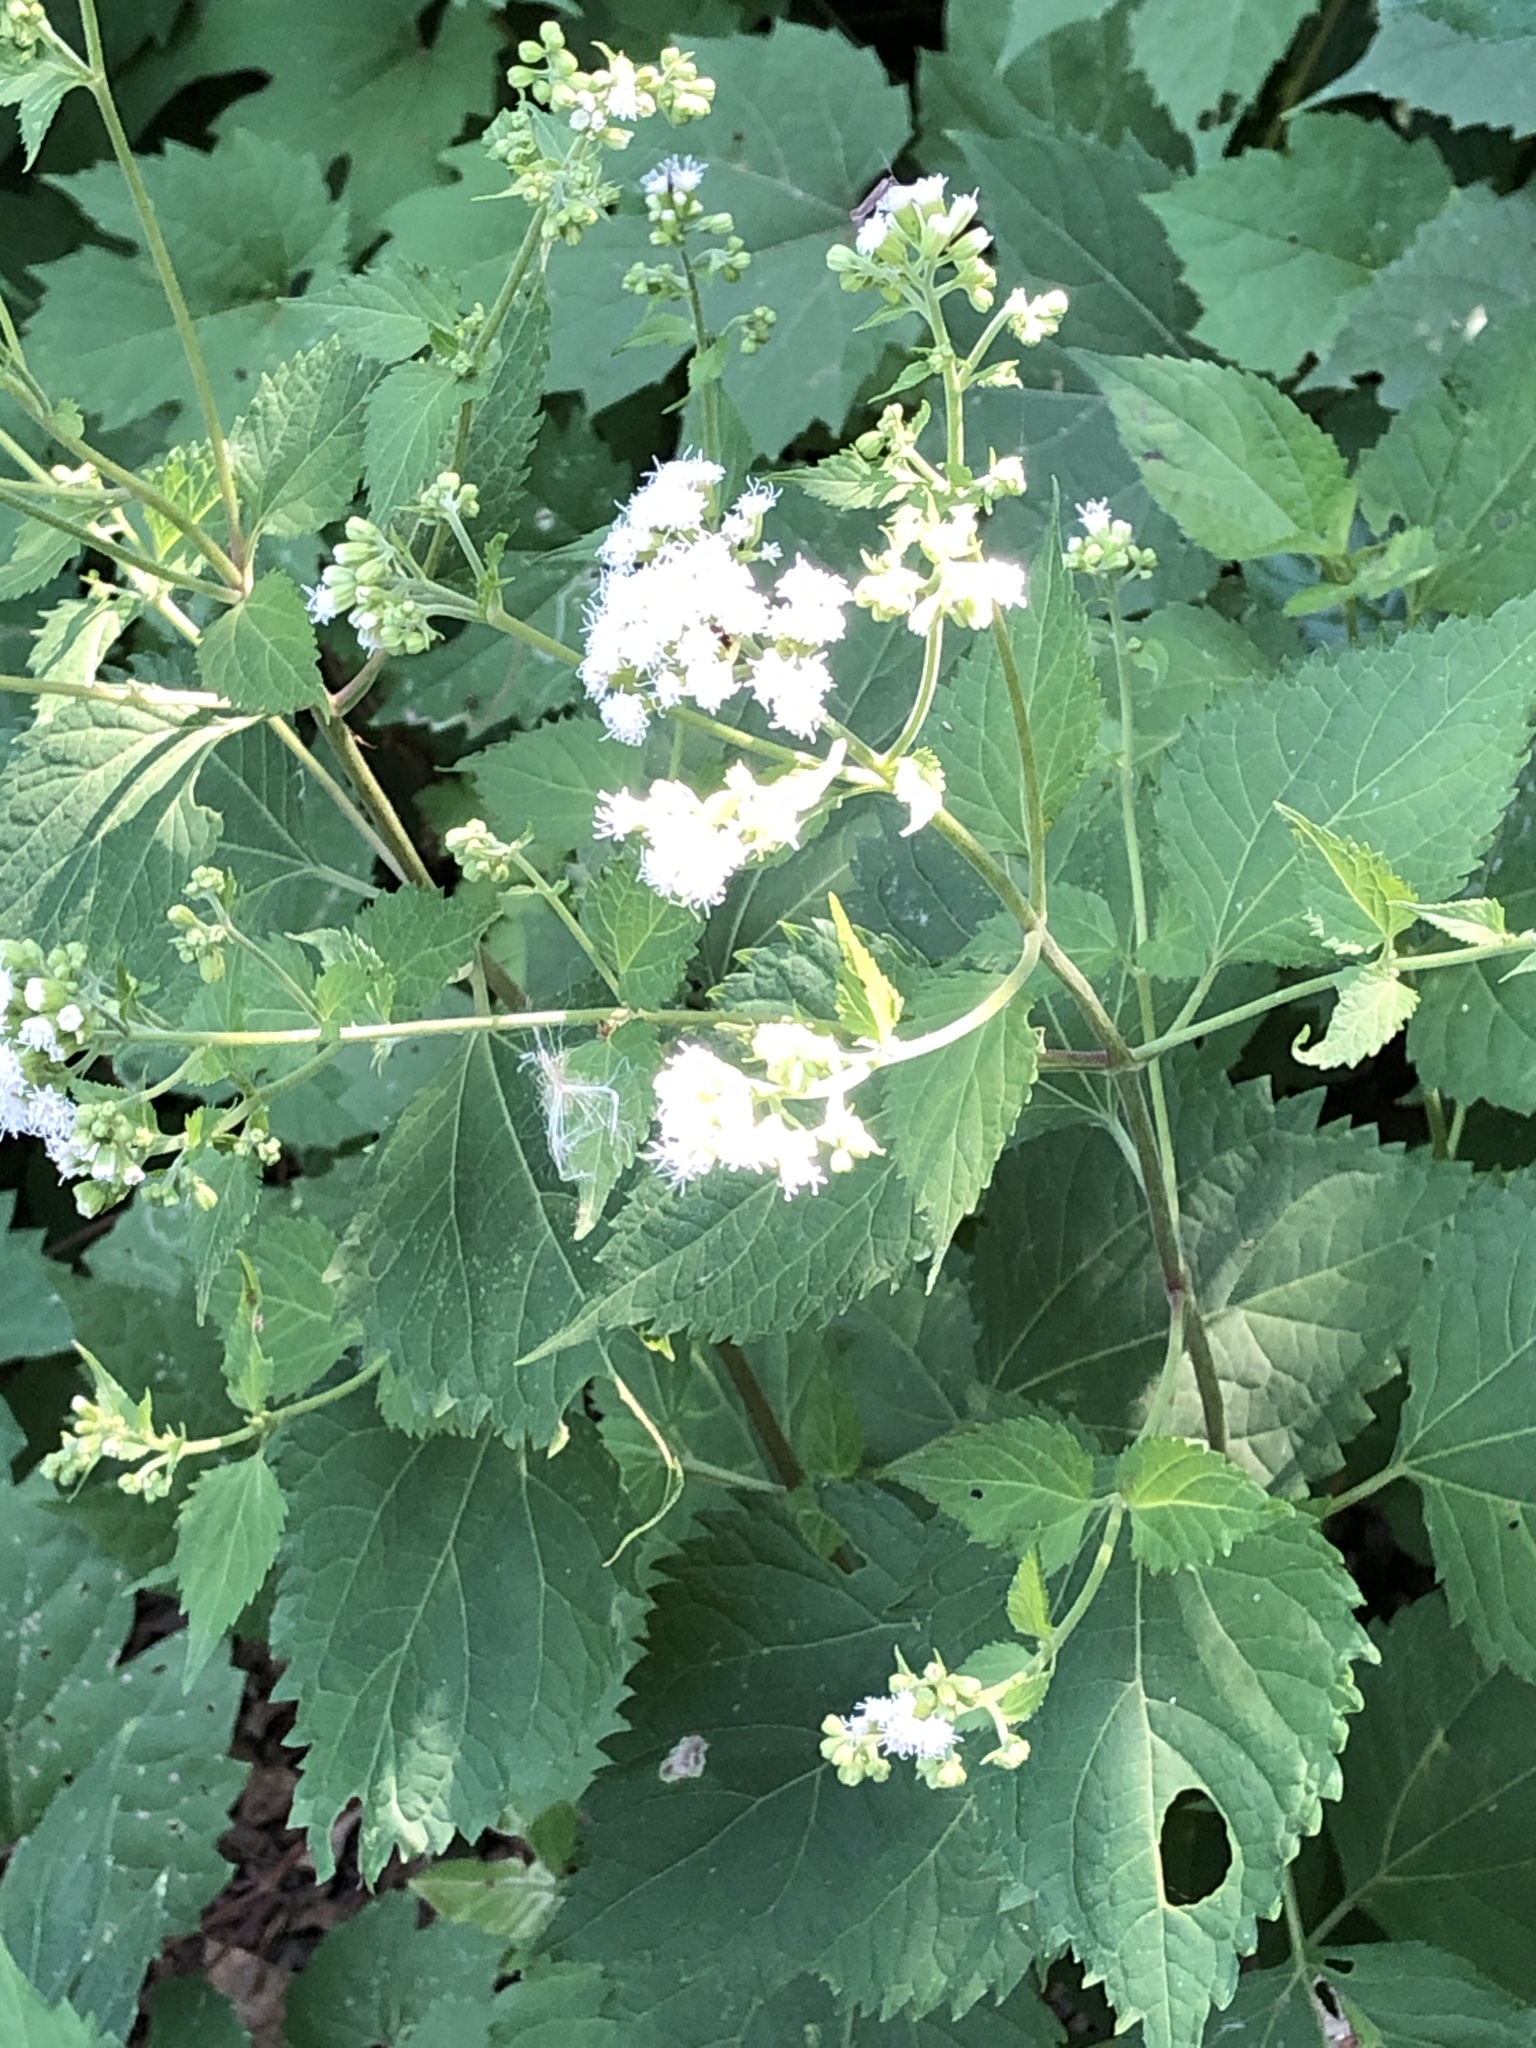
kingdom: Plantae
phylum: Tracheophyta
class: Magnoliopsida
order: Asterales
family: Asteraceae
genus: Ageratina
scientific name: Ageratina altissima
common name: White snakeroot
